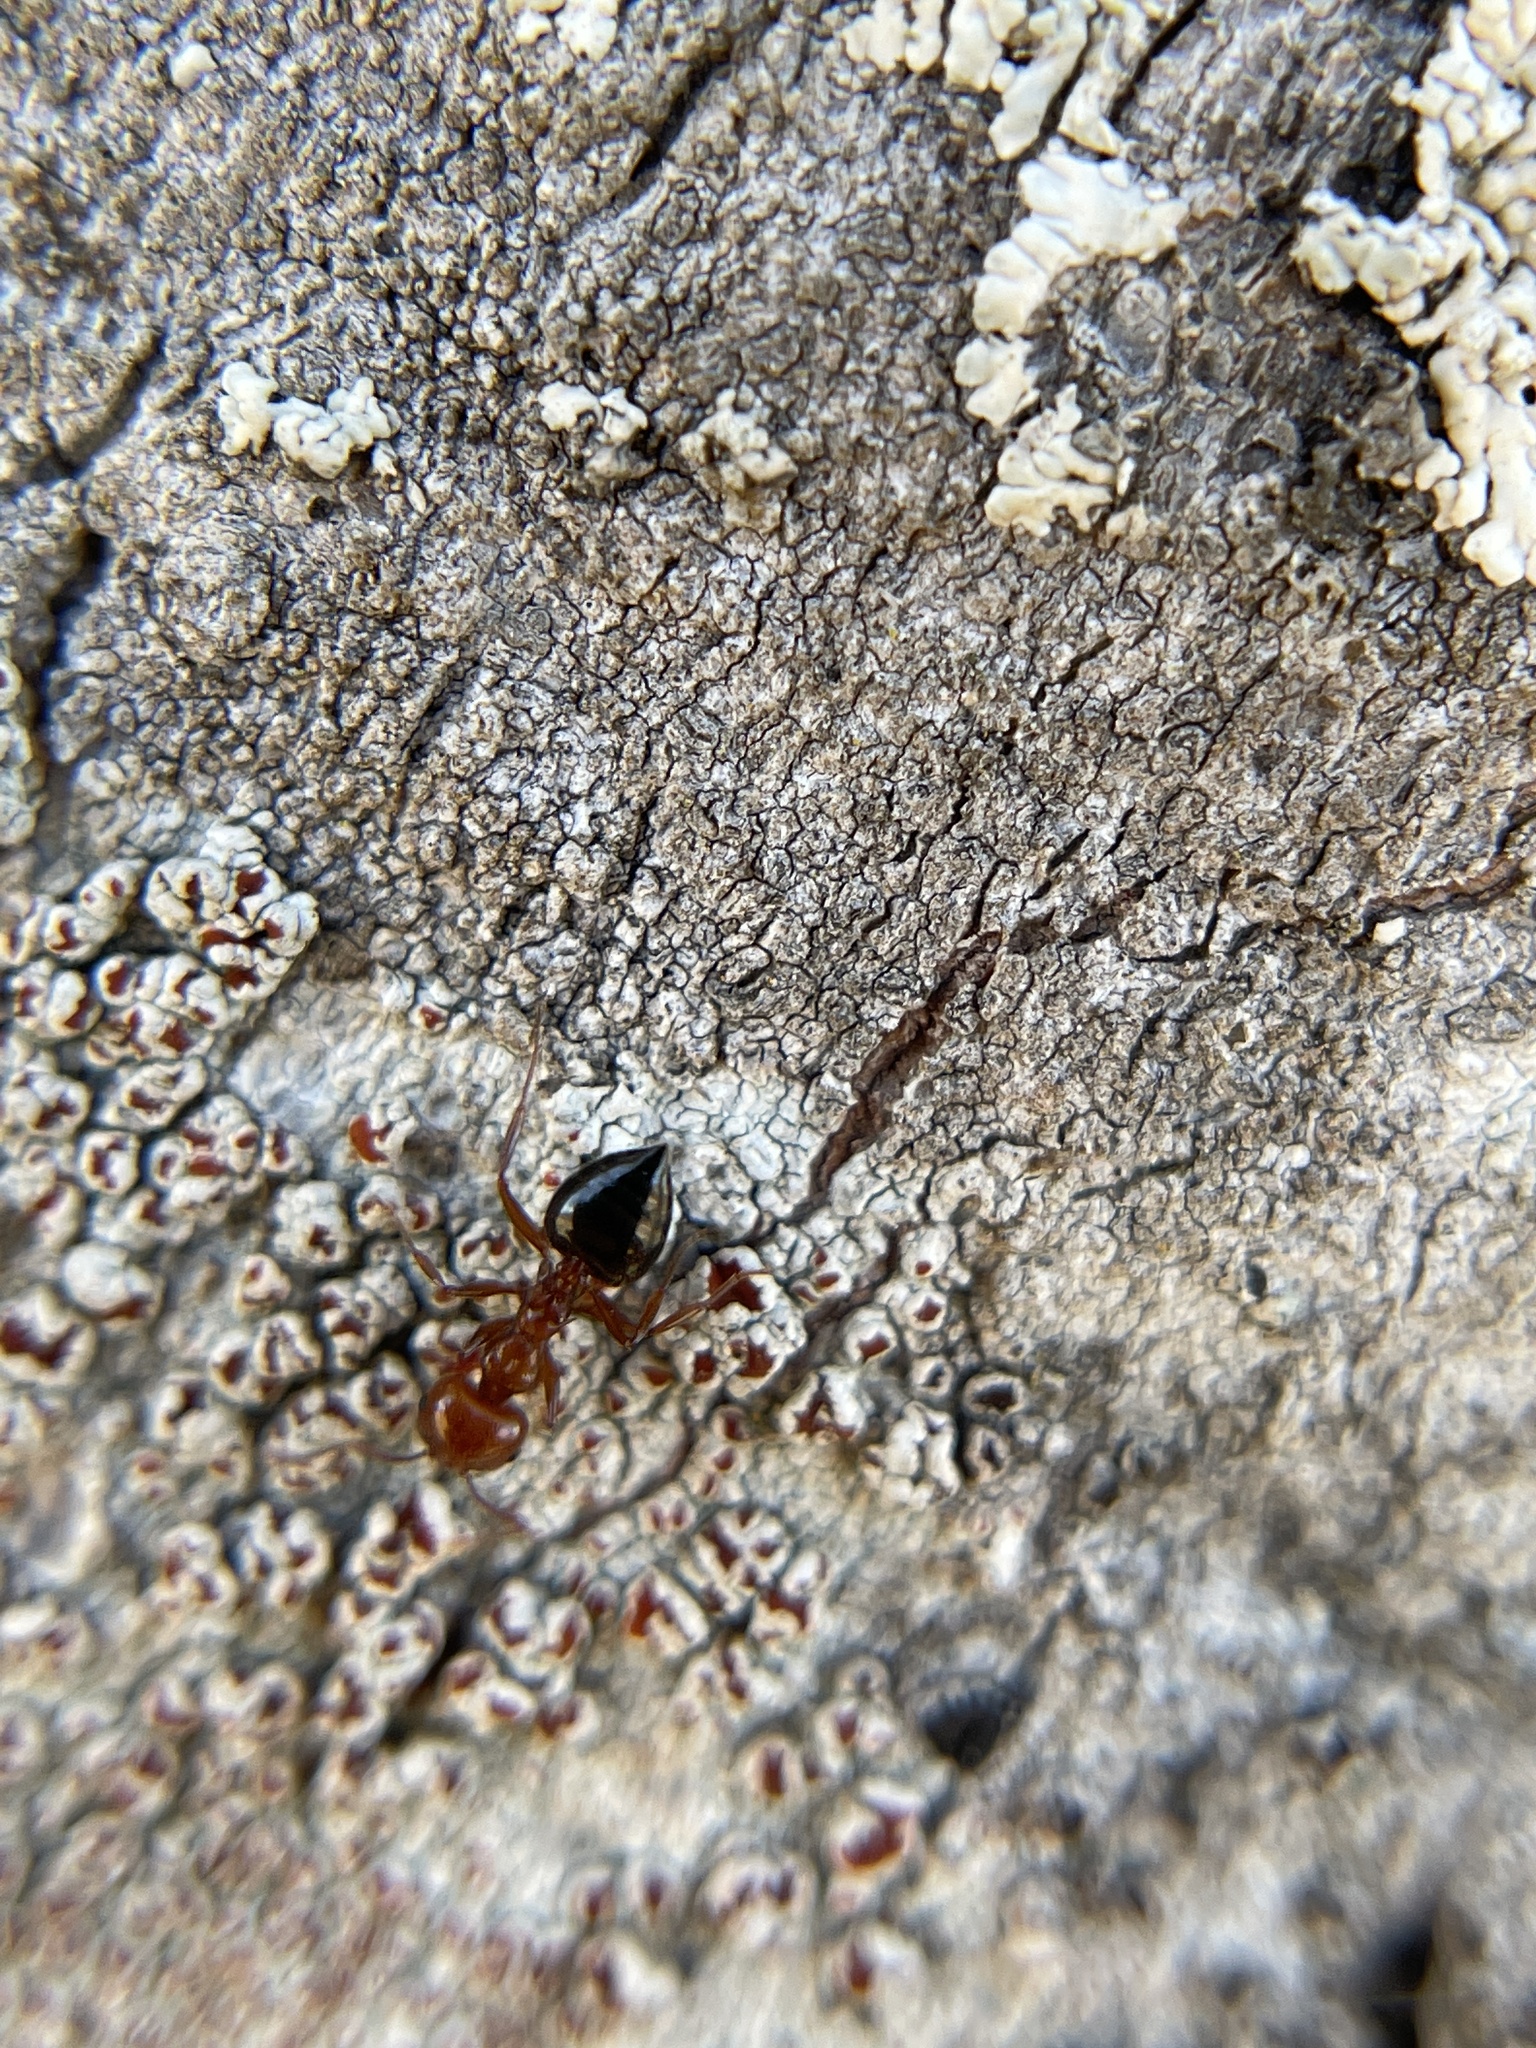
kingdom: Animalia
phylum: Arthropoda
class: Insecta
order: Hymenoptera
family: Formicidae
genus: Crematogaster
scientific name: Crematogaster laeviuscula
